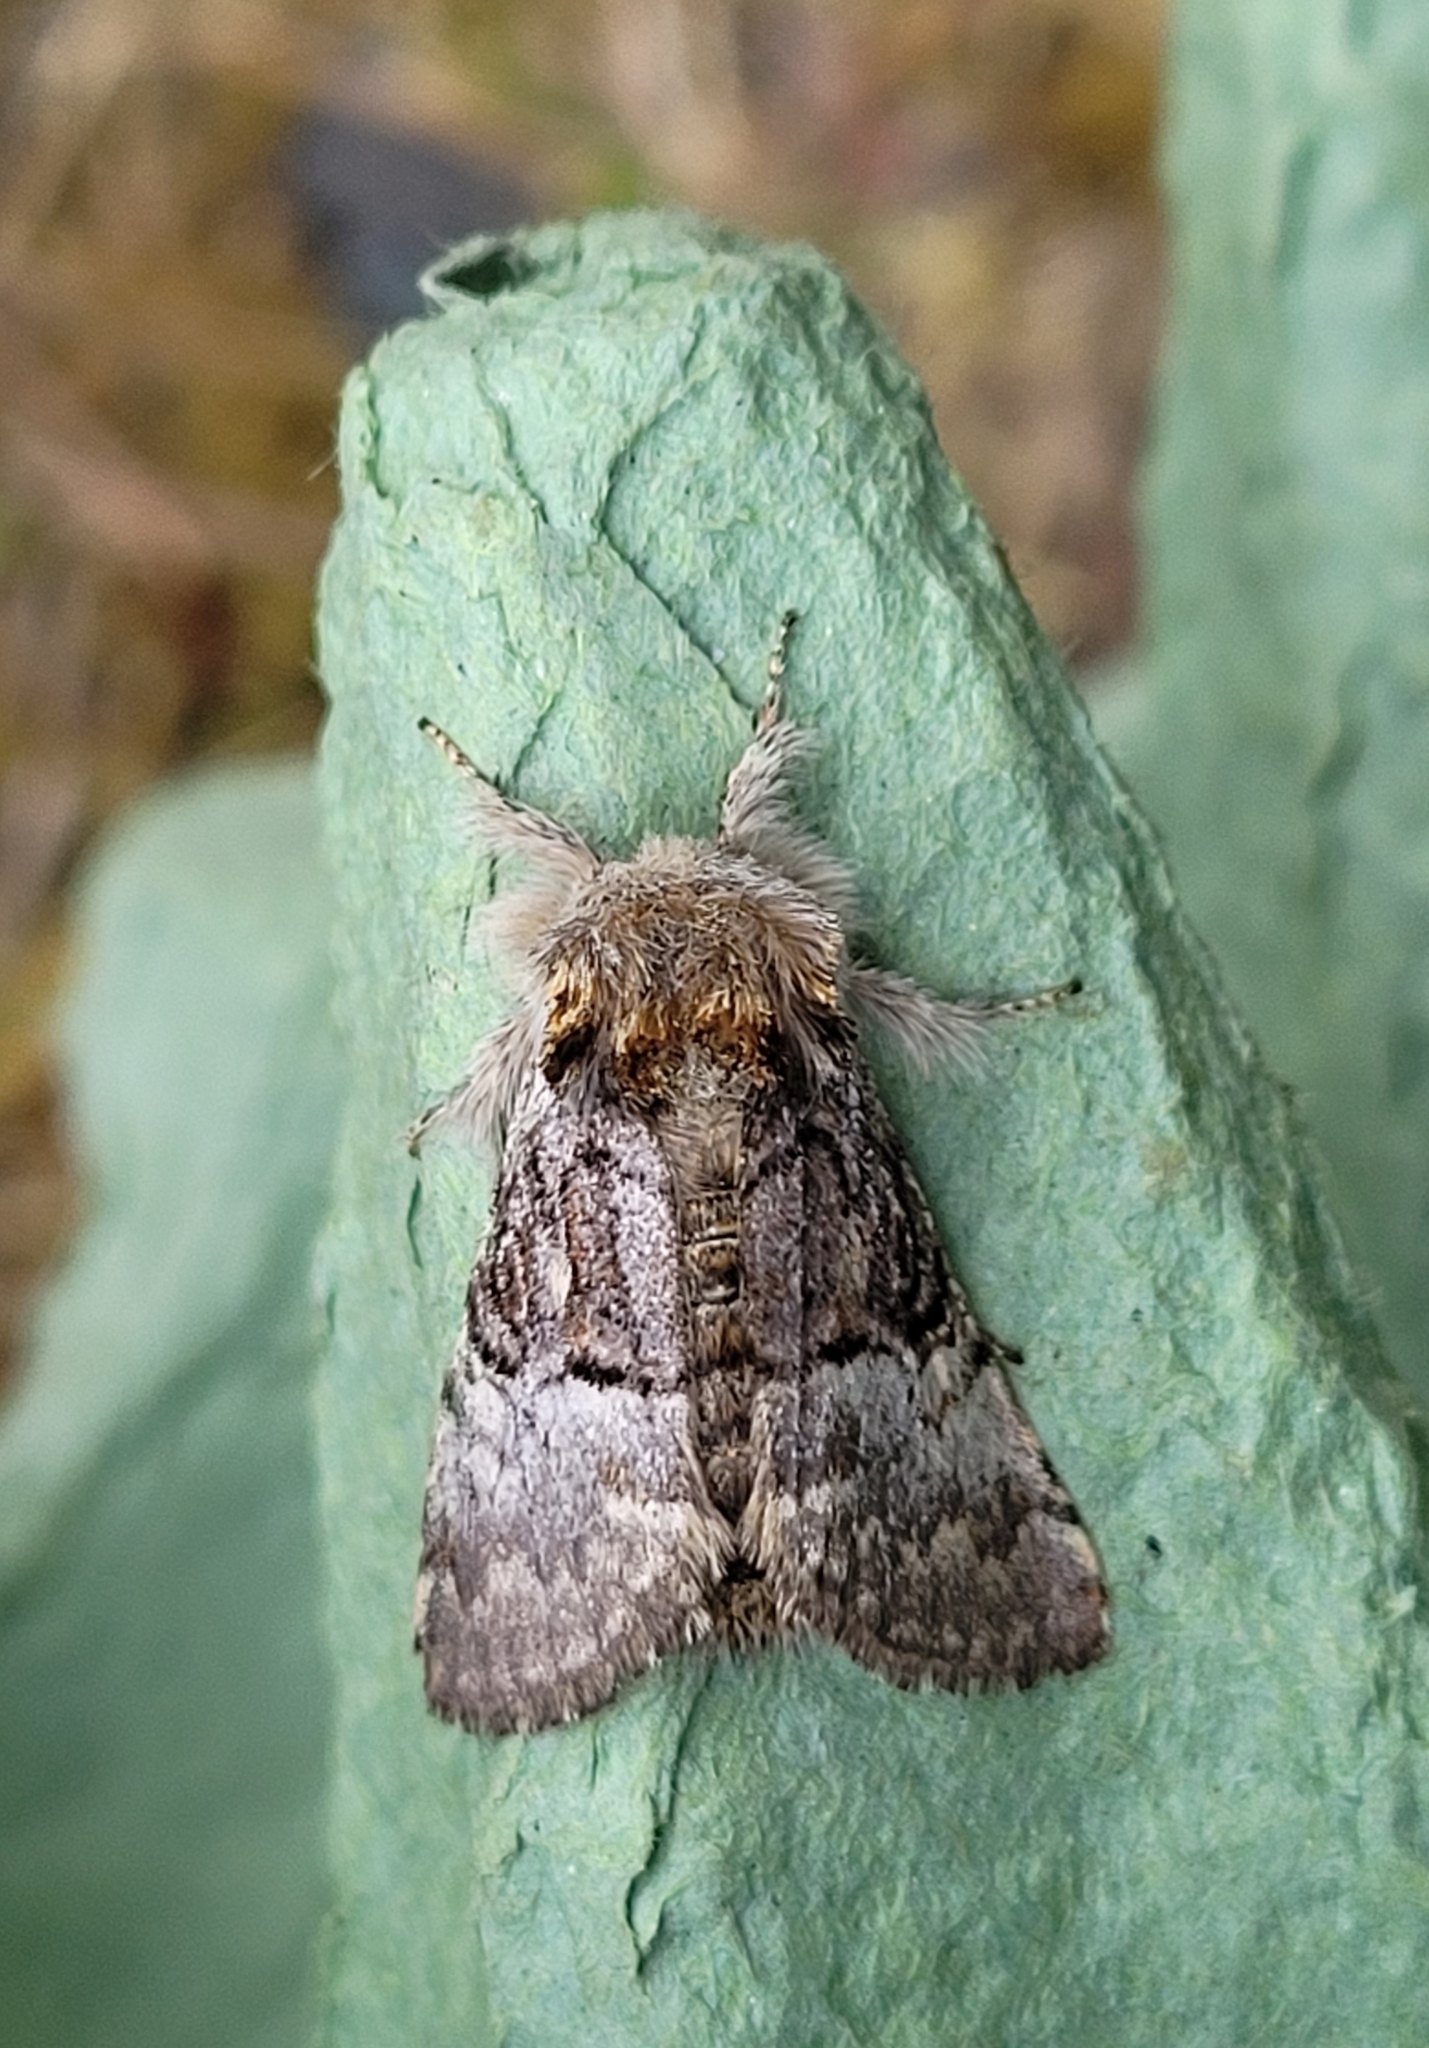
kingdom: Animalia
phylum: Arthropoda
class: Insecta
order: Lepidoptera
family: Noctuidae
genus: Colocasia
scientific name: Colocasia coryli
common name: Nut-tree tussock
